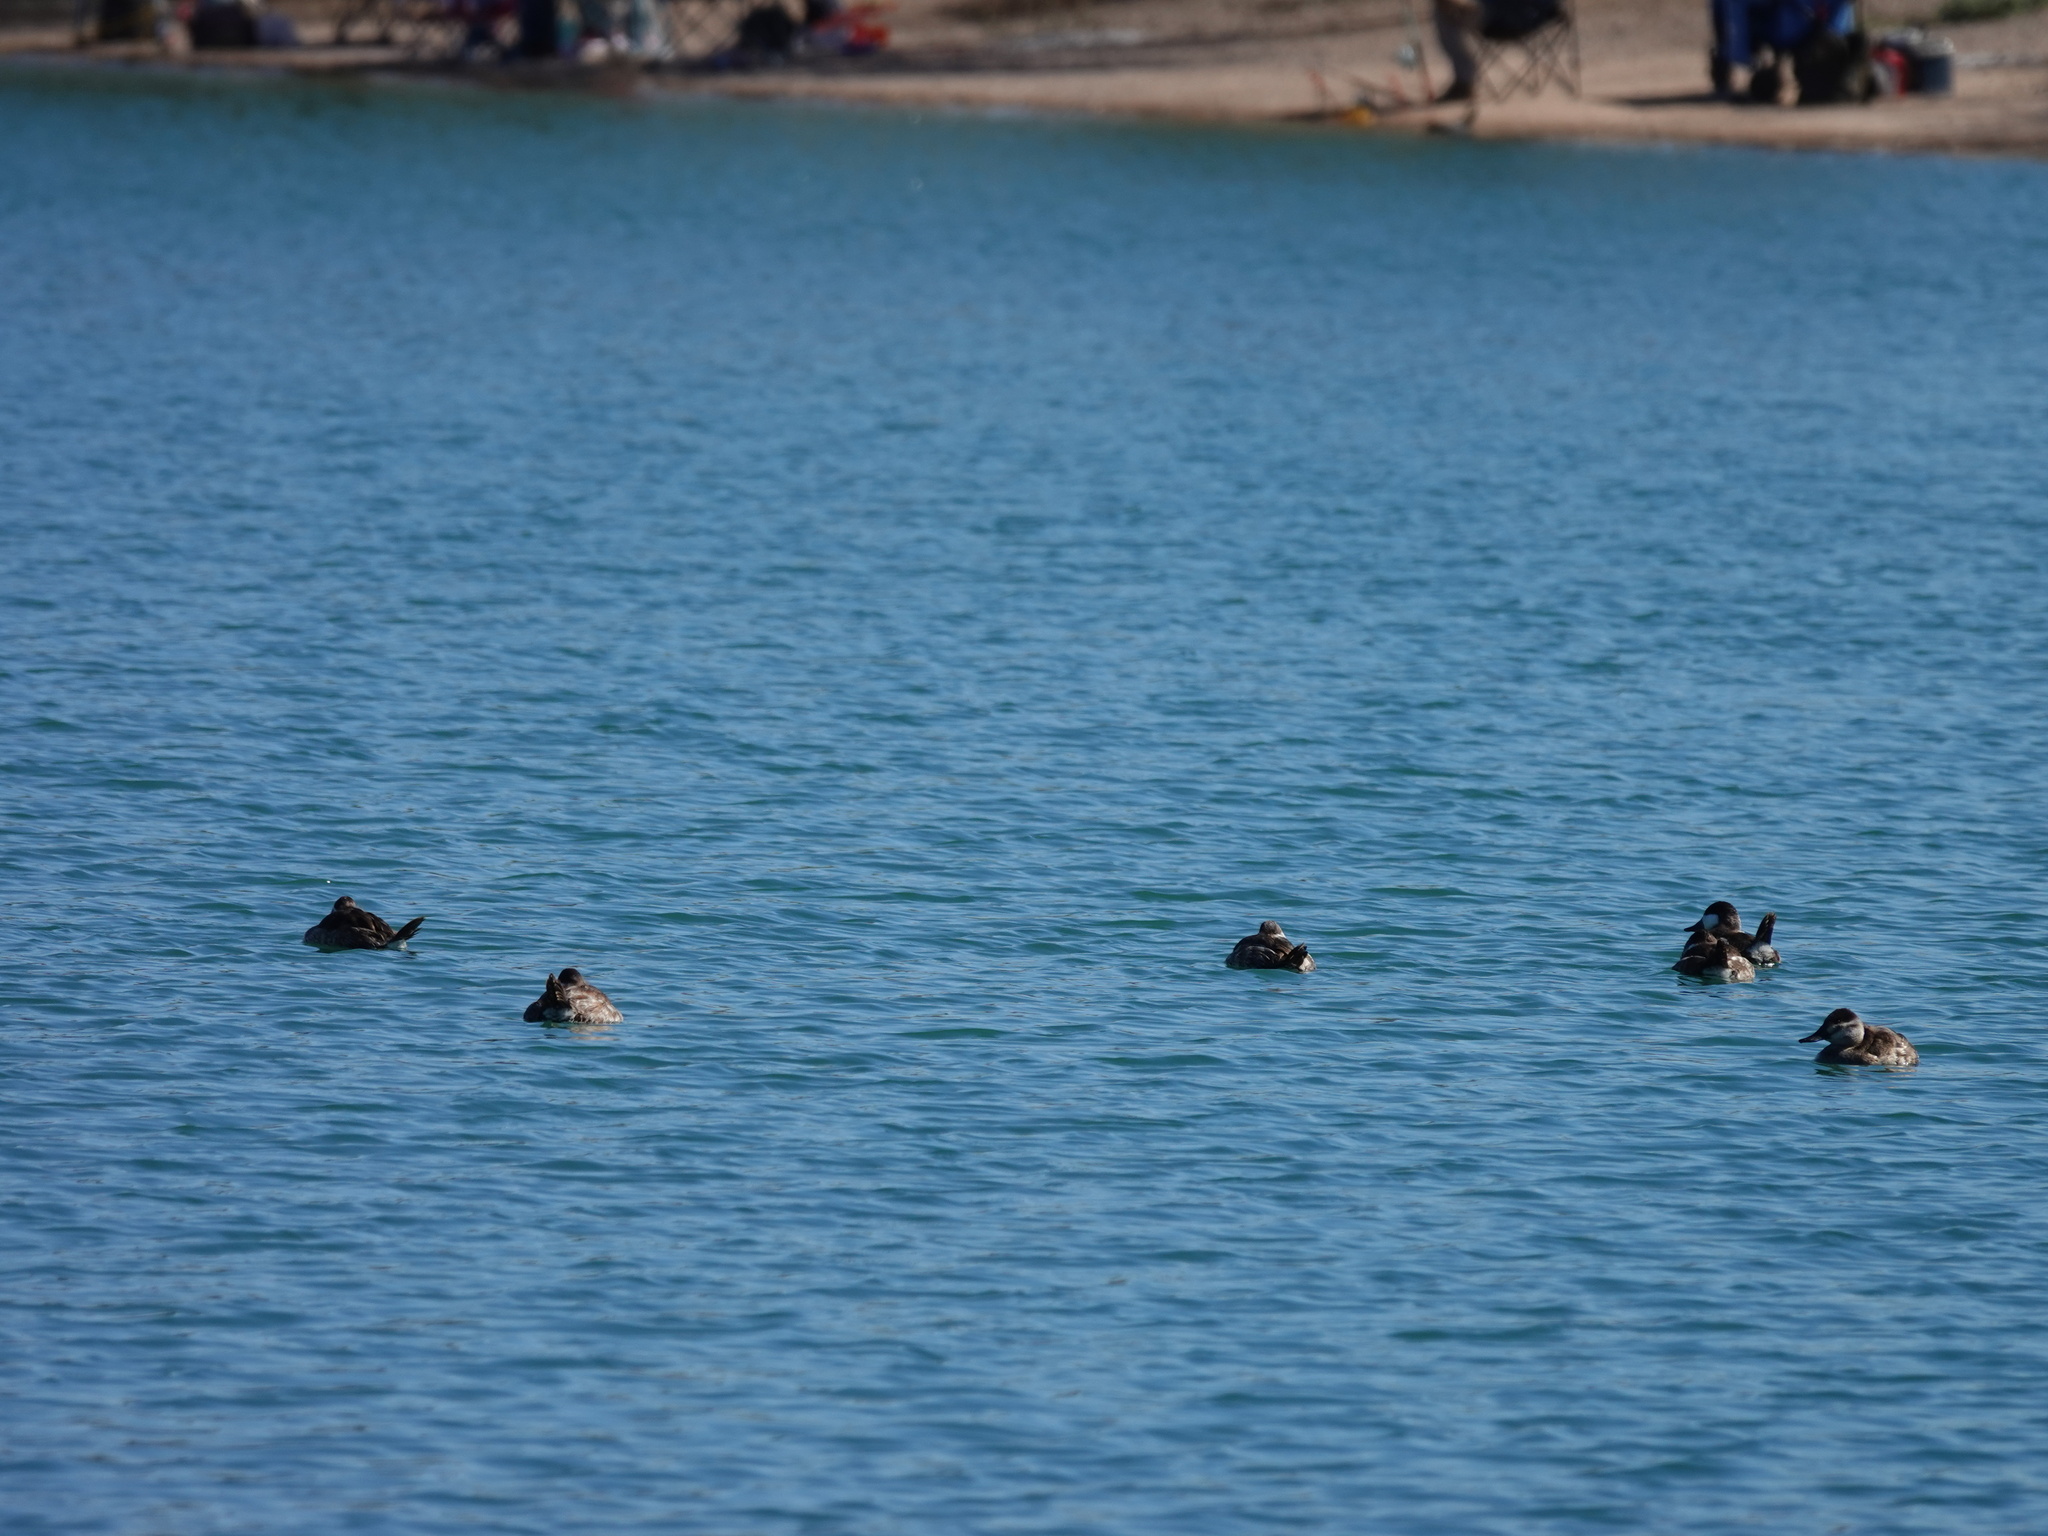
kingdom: Animalia
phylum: Chordata
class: Aves
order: Anseriformes
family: Anatidae
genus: Oxyura
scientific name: Oxyura jamaicensis
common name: Ruddy duck
